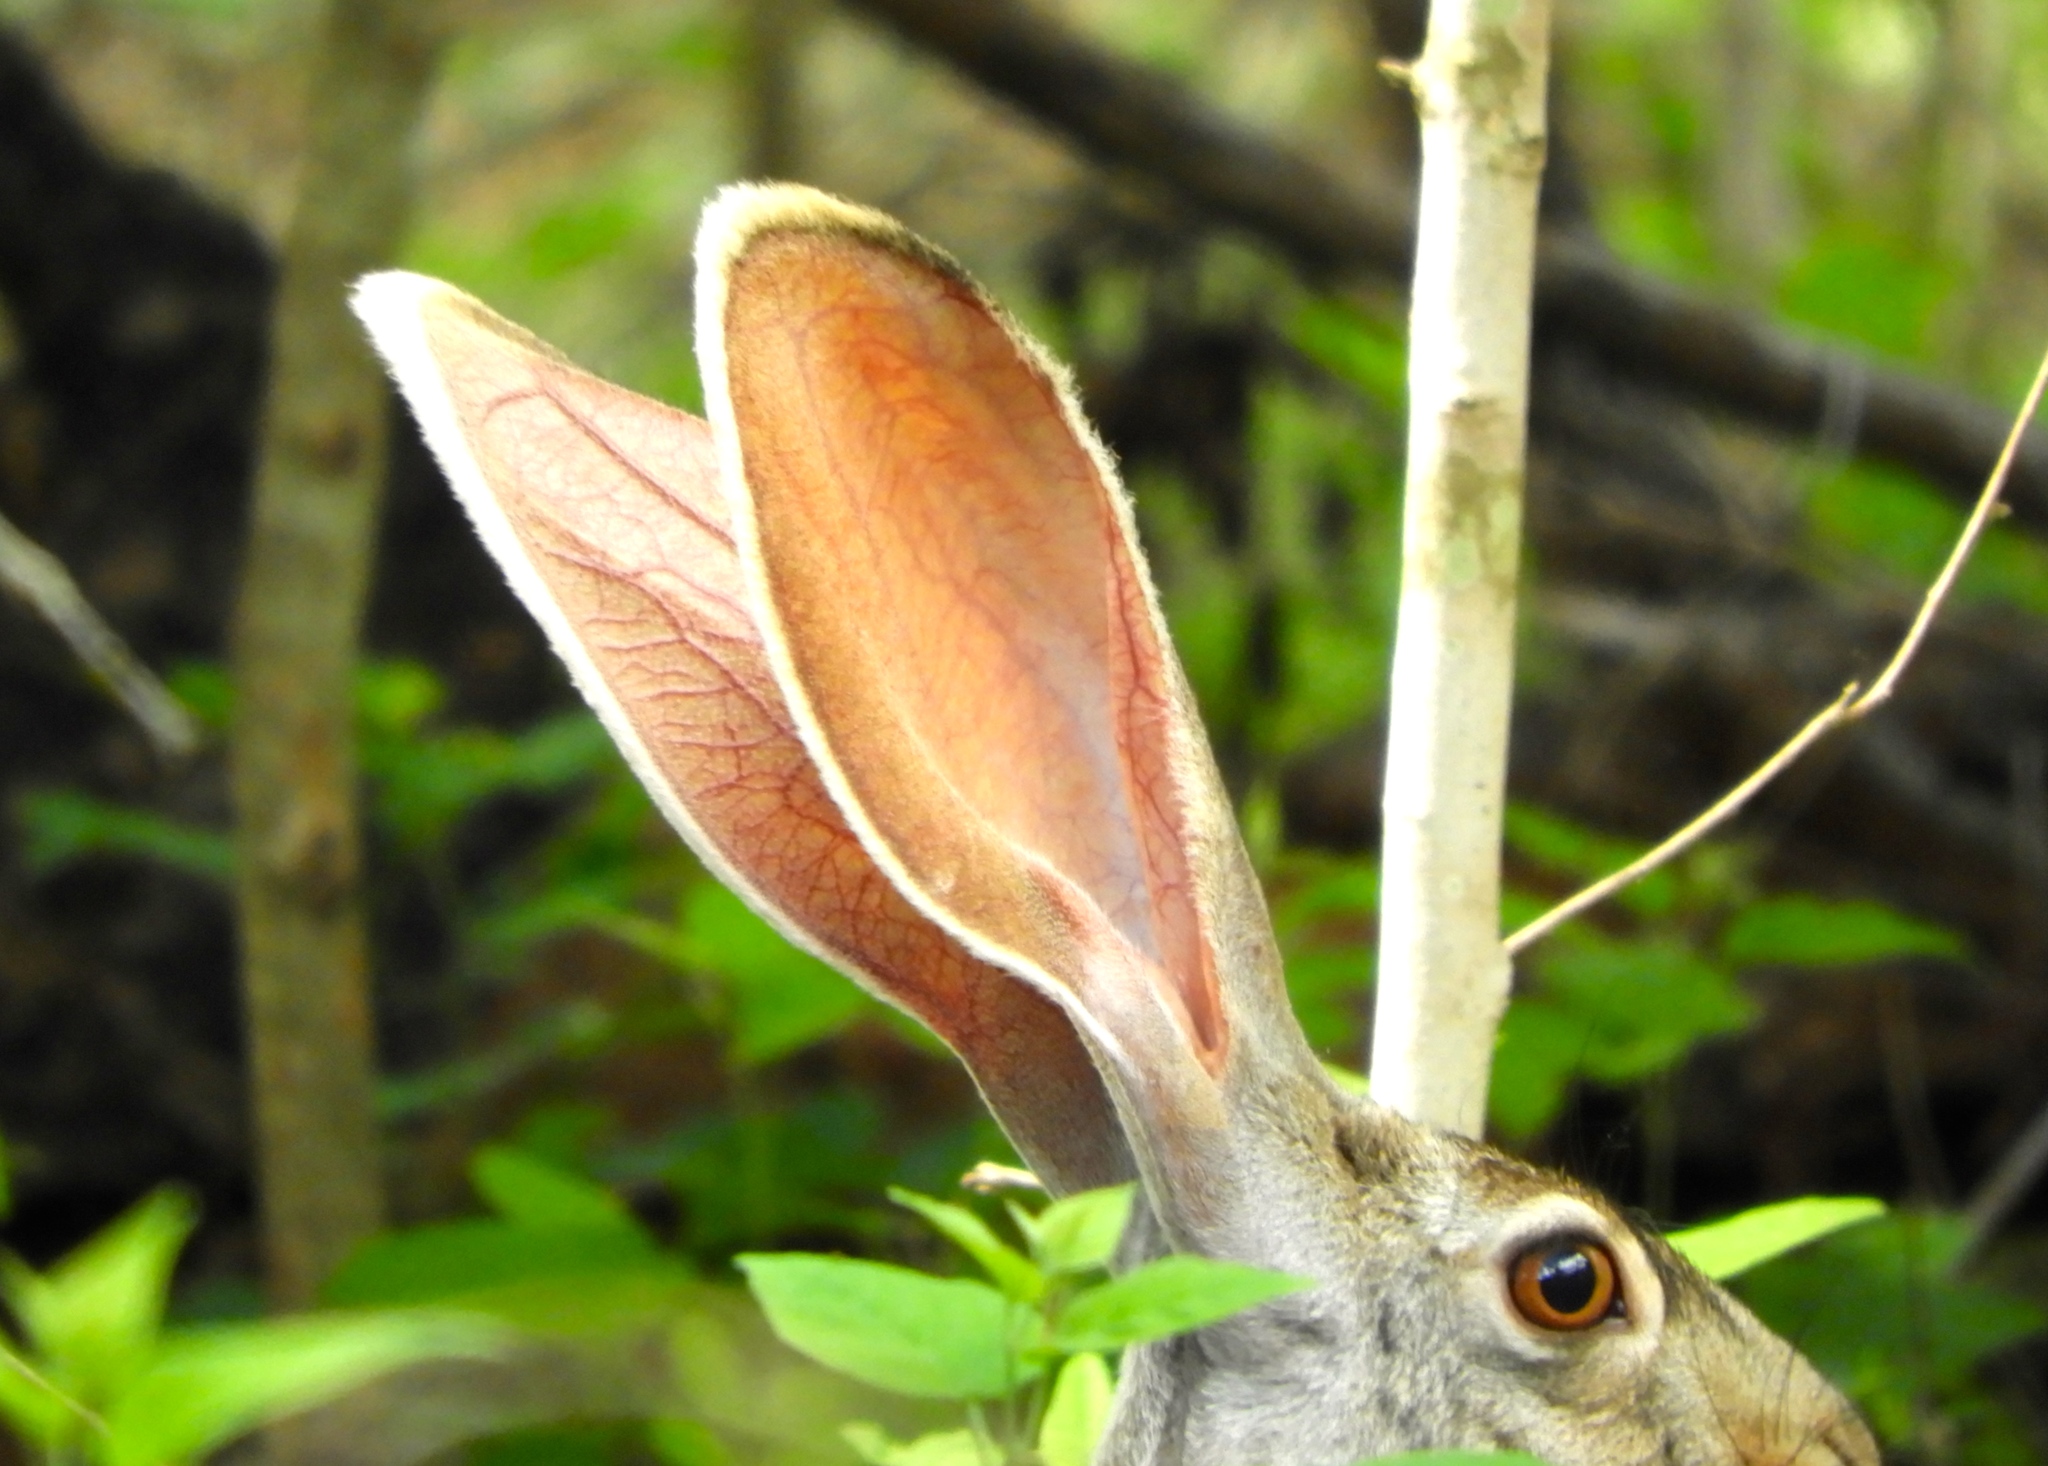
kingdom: Animalia
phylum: Chordata
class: Mammalia
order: Lagomorpha
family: Leporidae
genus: Lepus
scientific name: Lepus alleni
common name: Antelope jackrabbit
